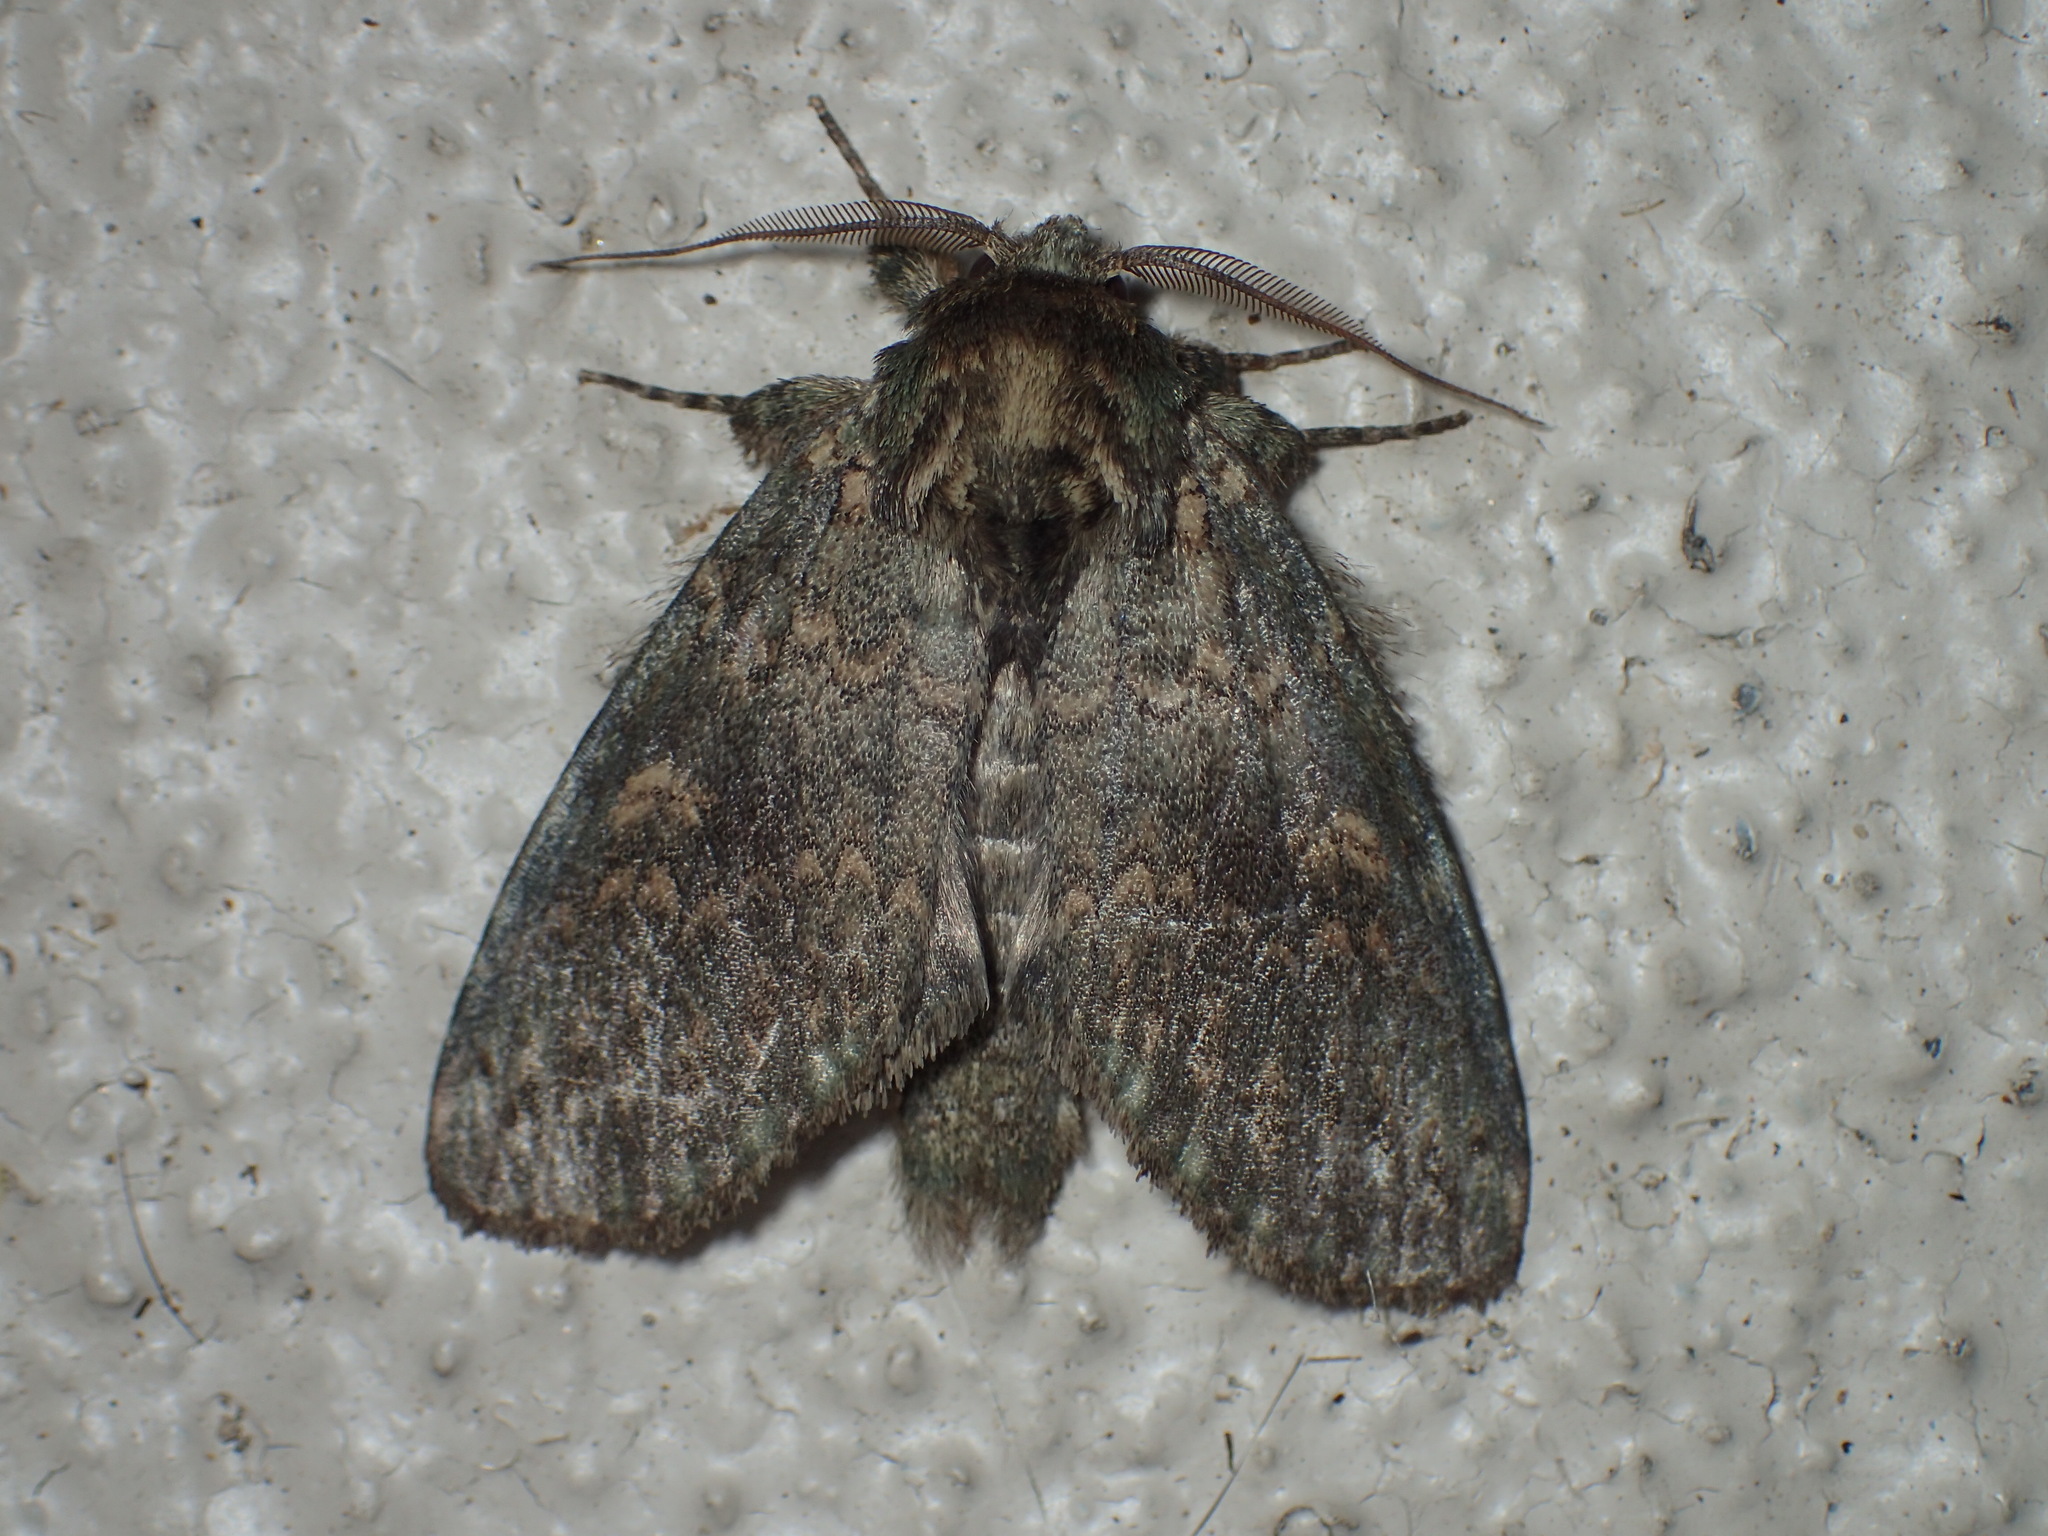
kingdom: Animalia
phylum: Arthropoda
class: Insecta
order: Lepidoptera
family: Notodontidae
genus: Disphragis
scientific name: Disphragis Cecrita biundata
